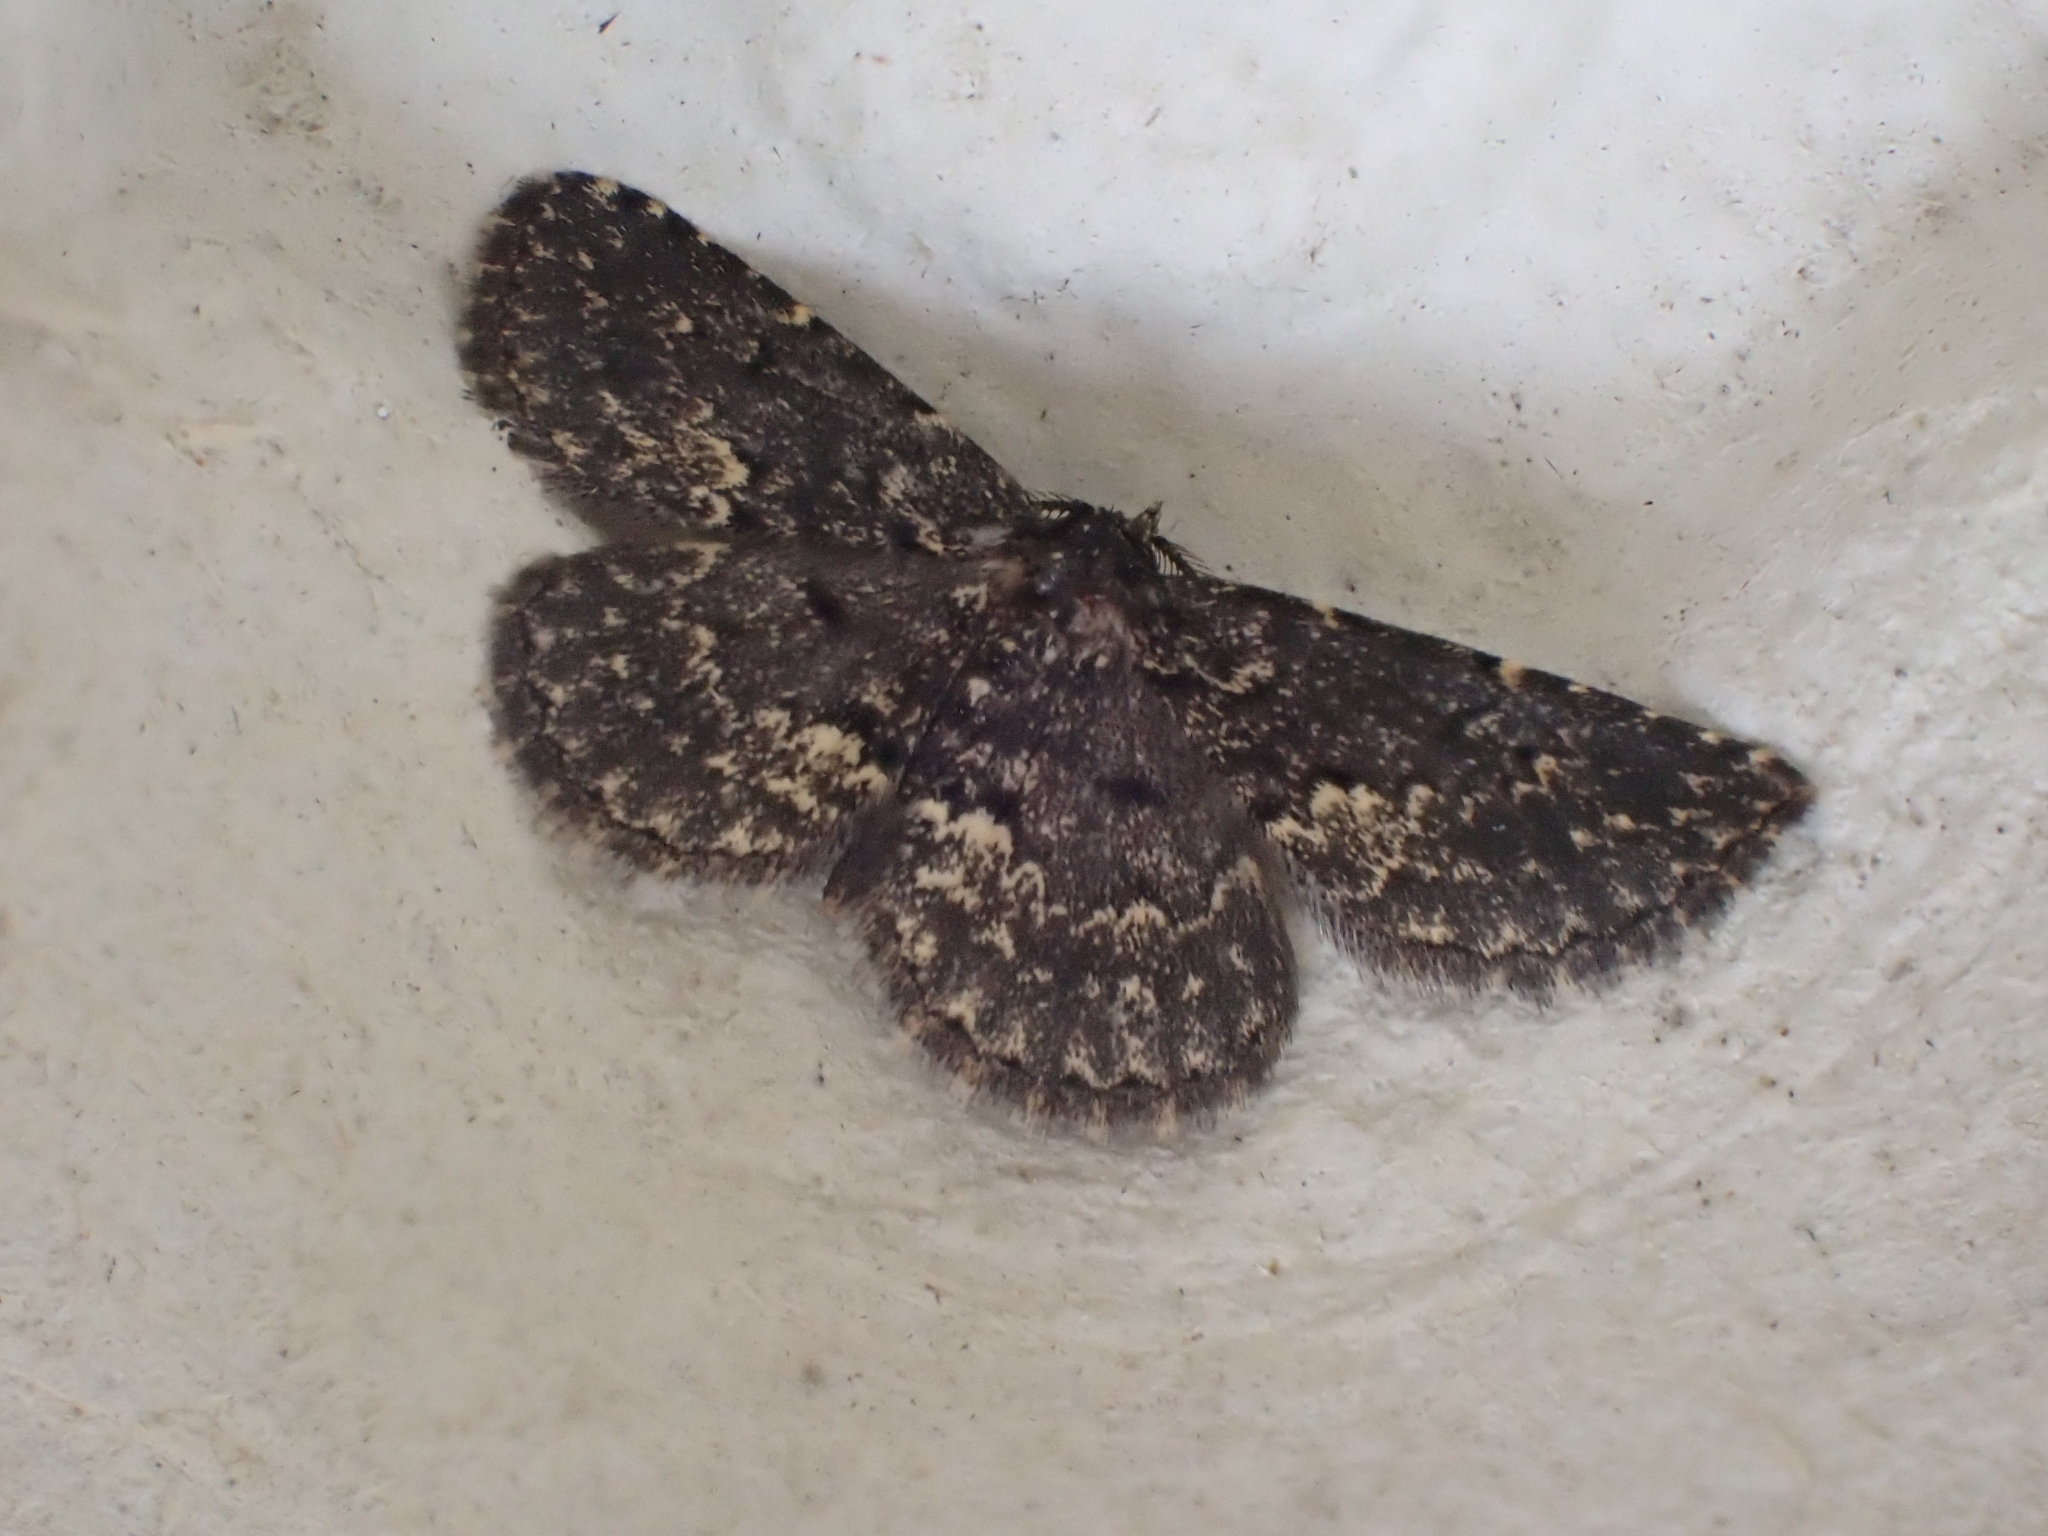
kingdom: Animalia
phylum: Arthropoda
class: Insecta
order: Lepidoptera
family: Erebidae
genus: Parascotia
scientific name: Parascotia fuliginaria
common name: Waved black
